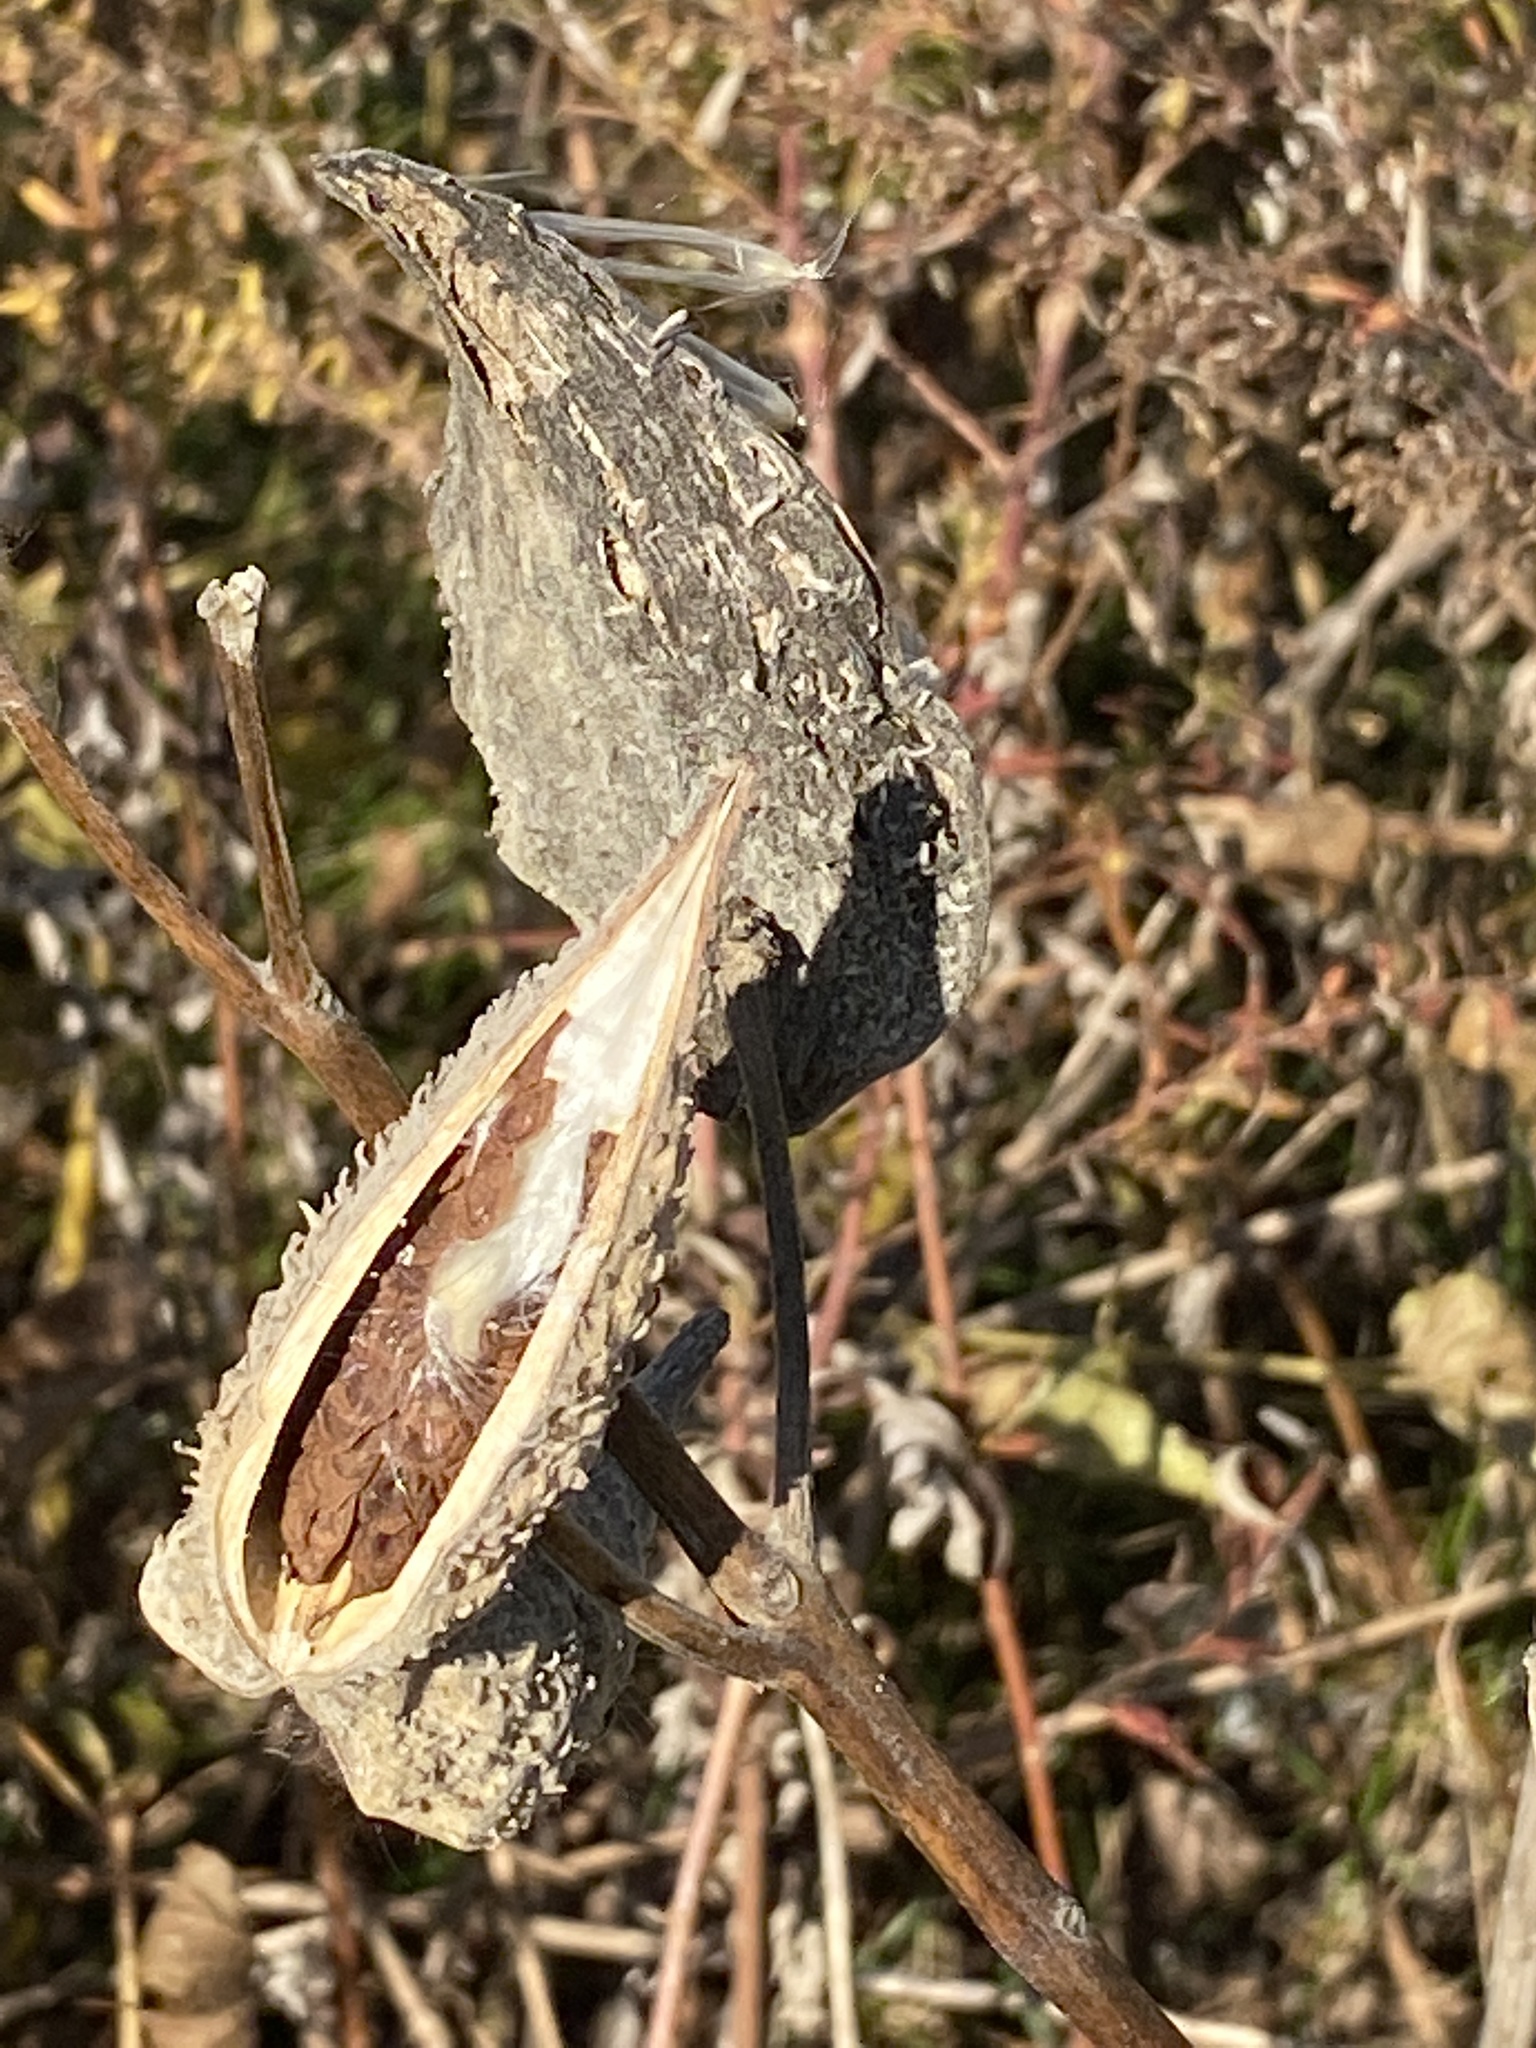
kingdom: Plantae
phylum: Tracheophyta
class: Magnoliopsida
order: Gentianales
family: Apocynaceae
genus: Asclepias
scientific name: Asclepias syriaca
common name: Common milkweed
